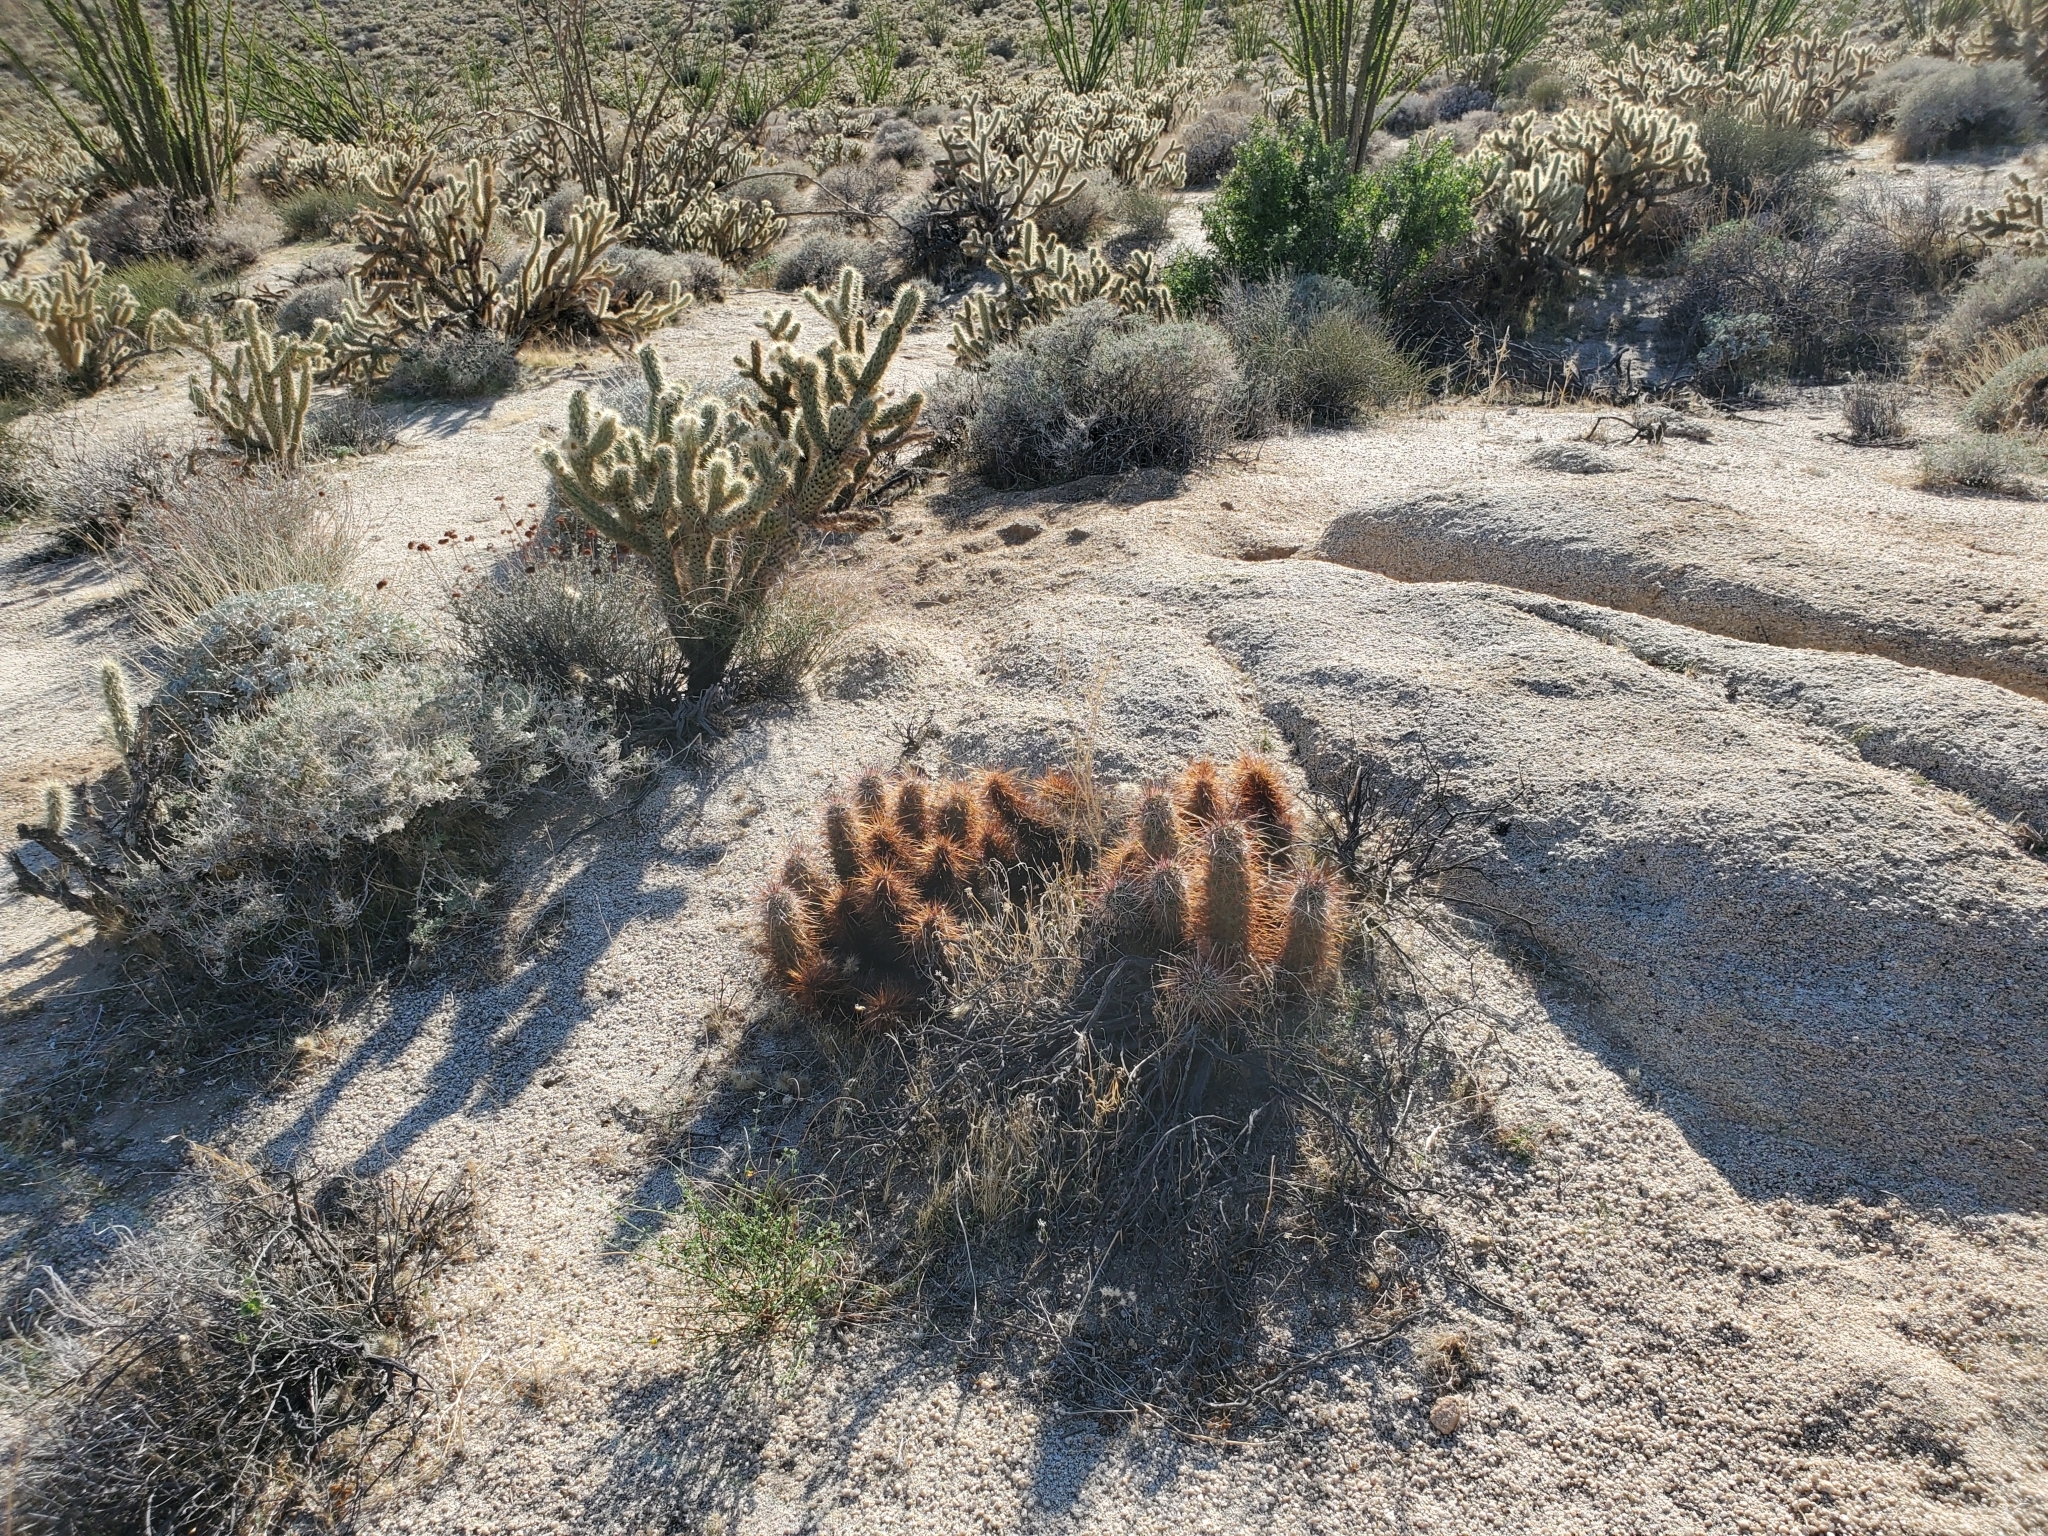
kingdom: Plantae
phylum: Tracheophyta
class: Magnoliopsida
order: Caryophyllales
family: Cactaceae
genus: Echinocereus
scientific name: Echinocereus engelmannii
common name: Engelmann's hedgehog cactus
